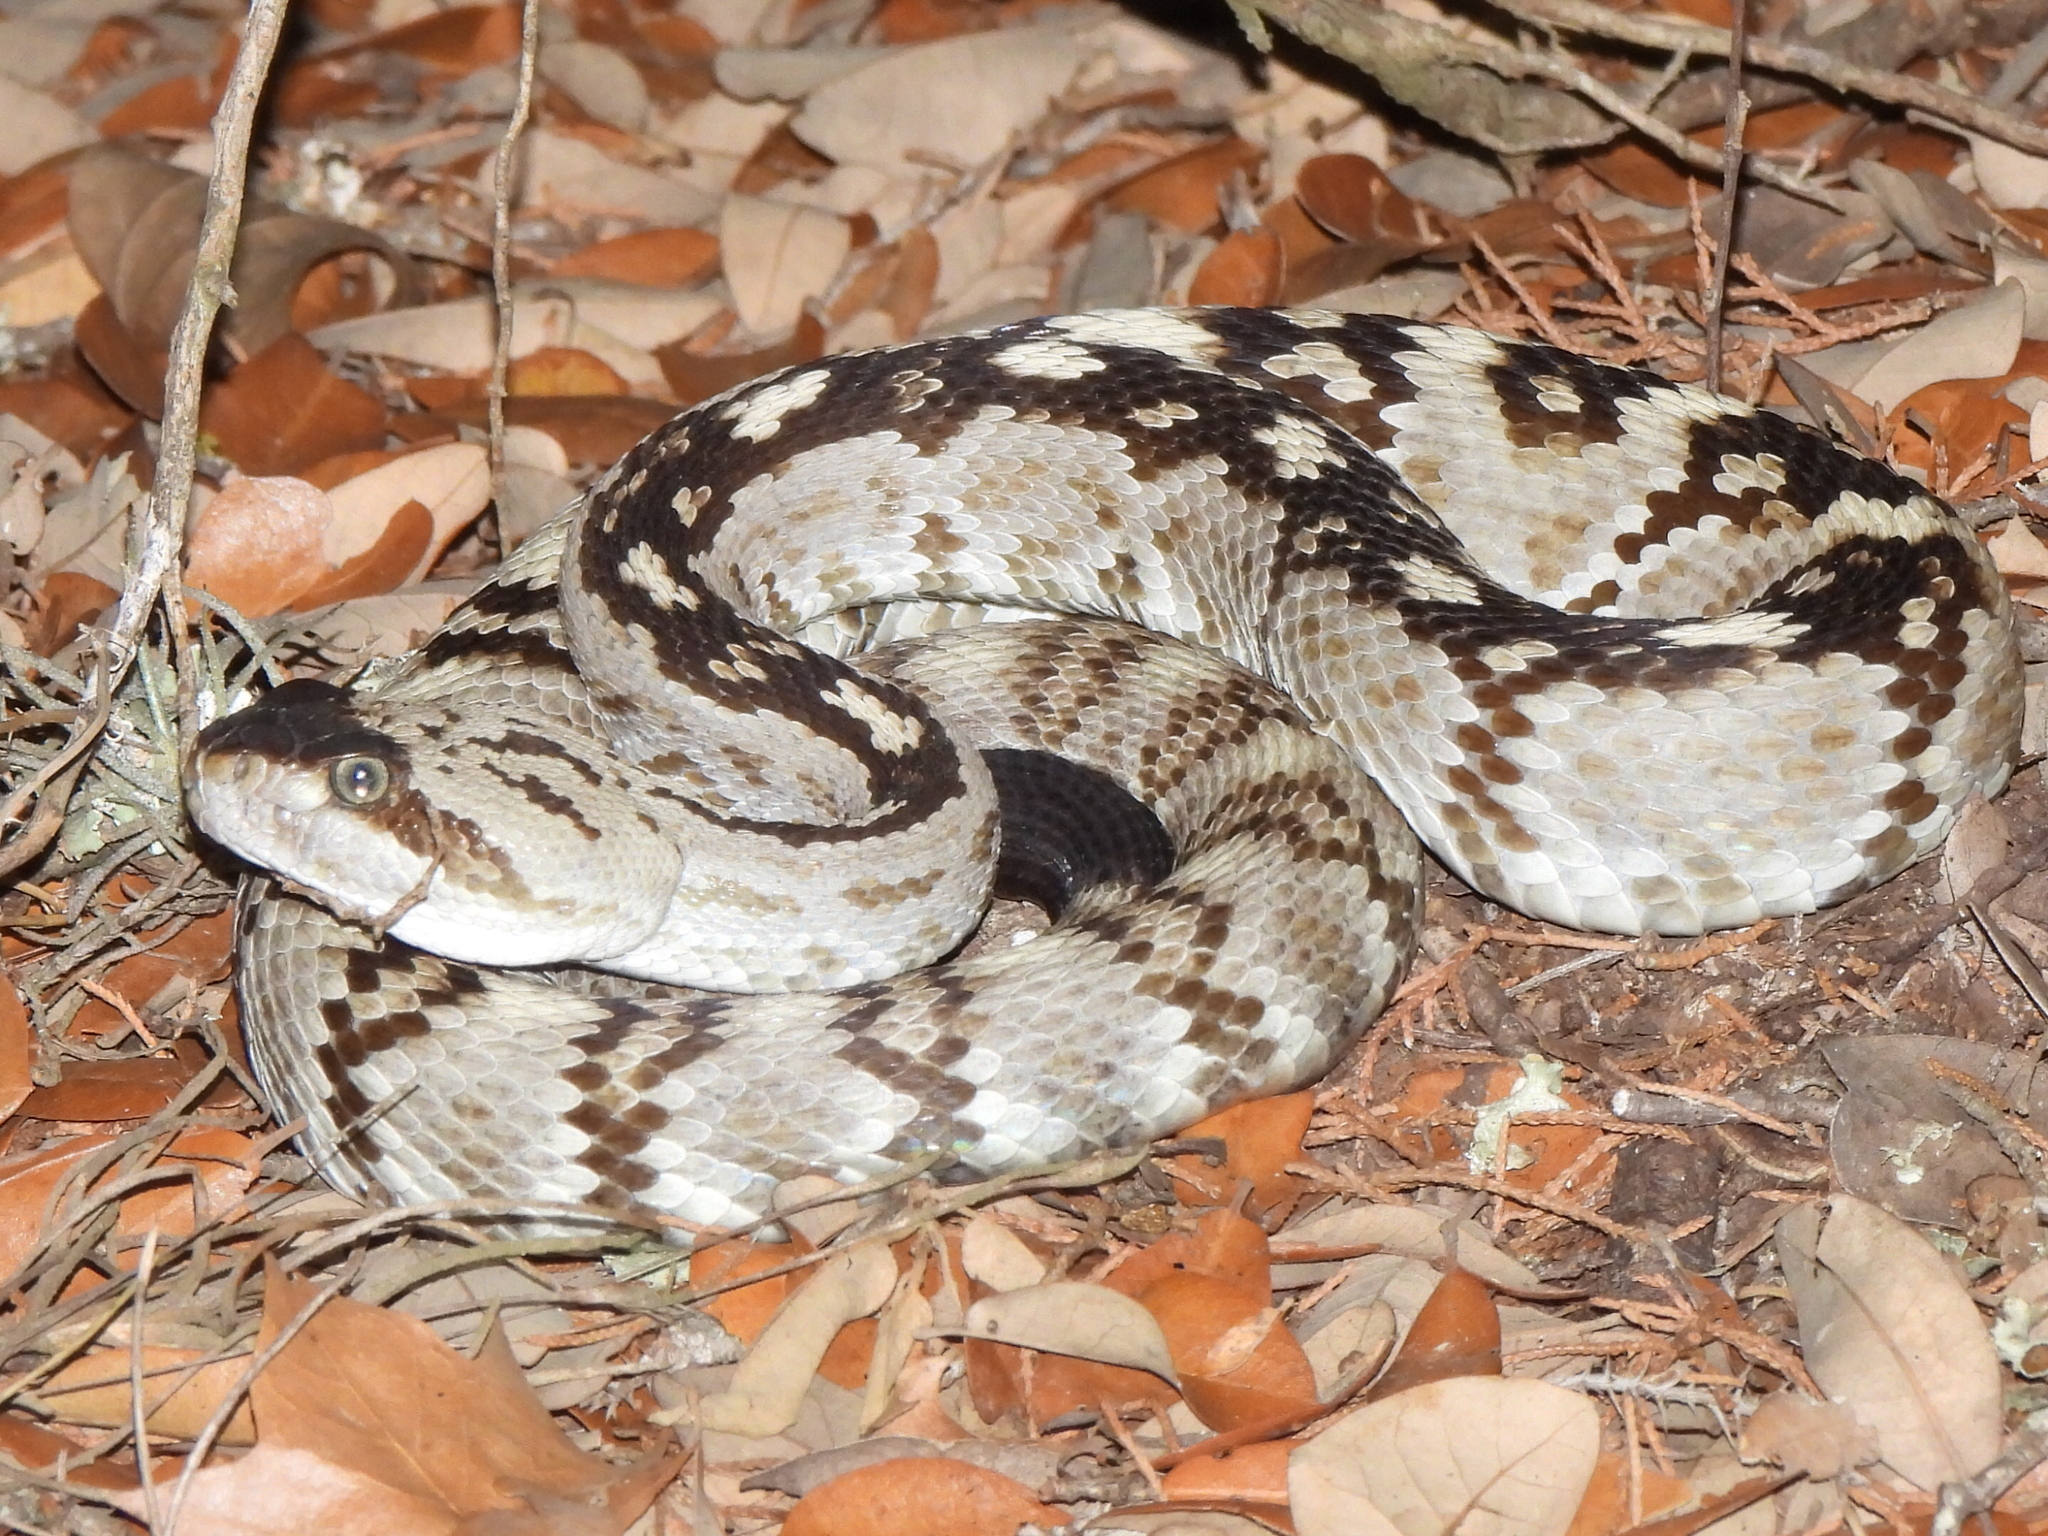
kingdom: Animalia
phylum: Chordata
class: Squamata
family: Viperidae
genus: Crotalus
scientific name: Crotalus ornatus
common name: Black-tailed rattlesnake
